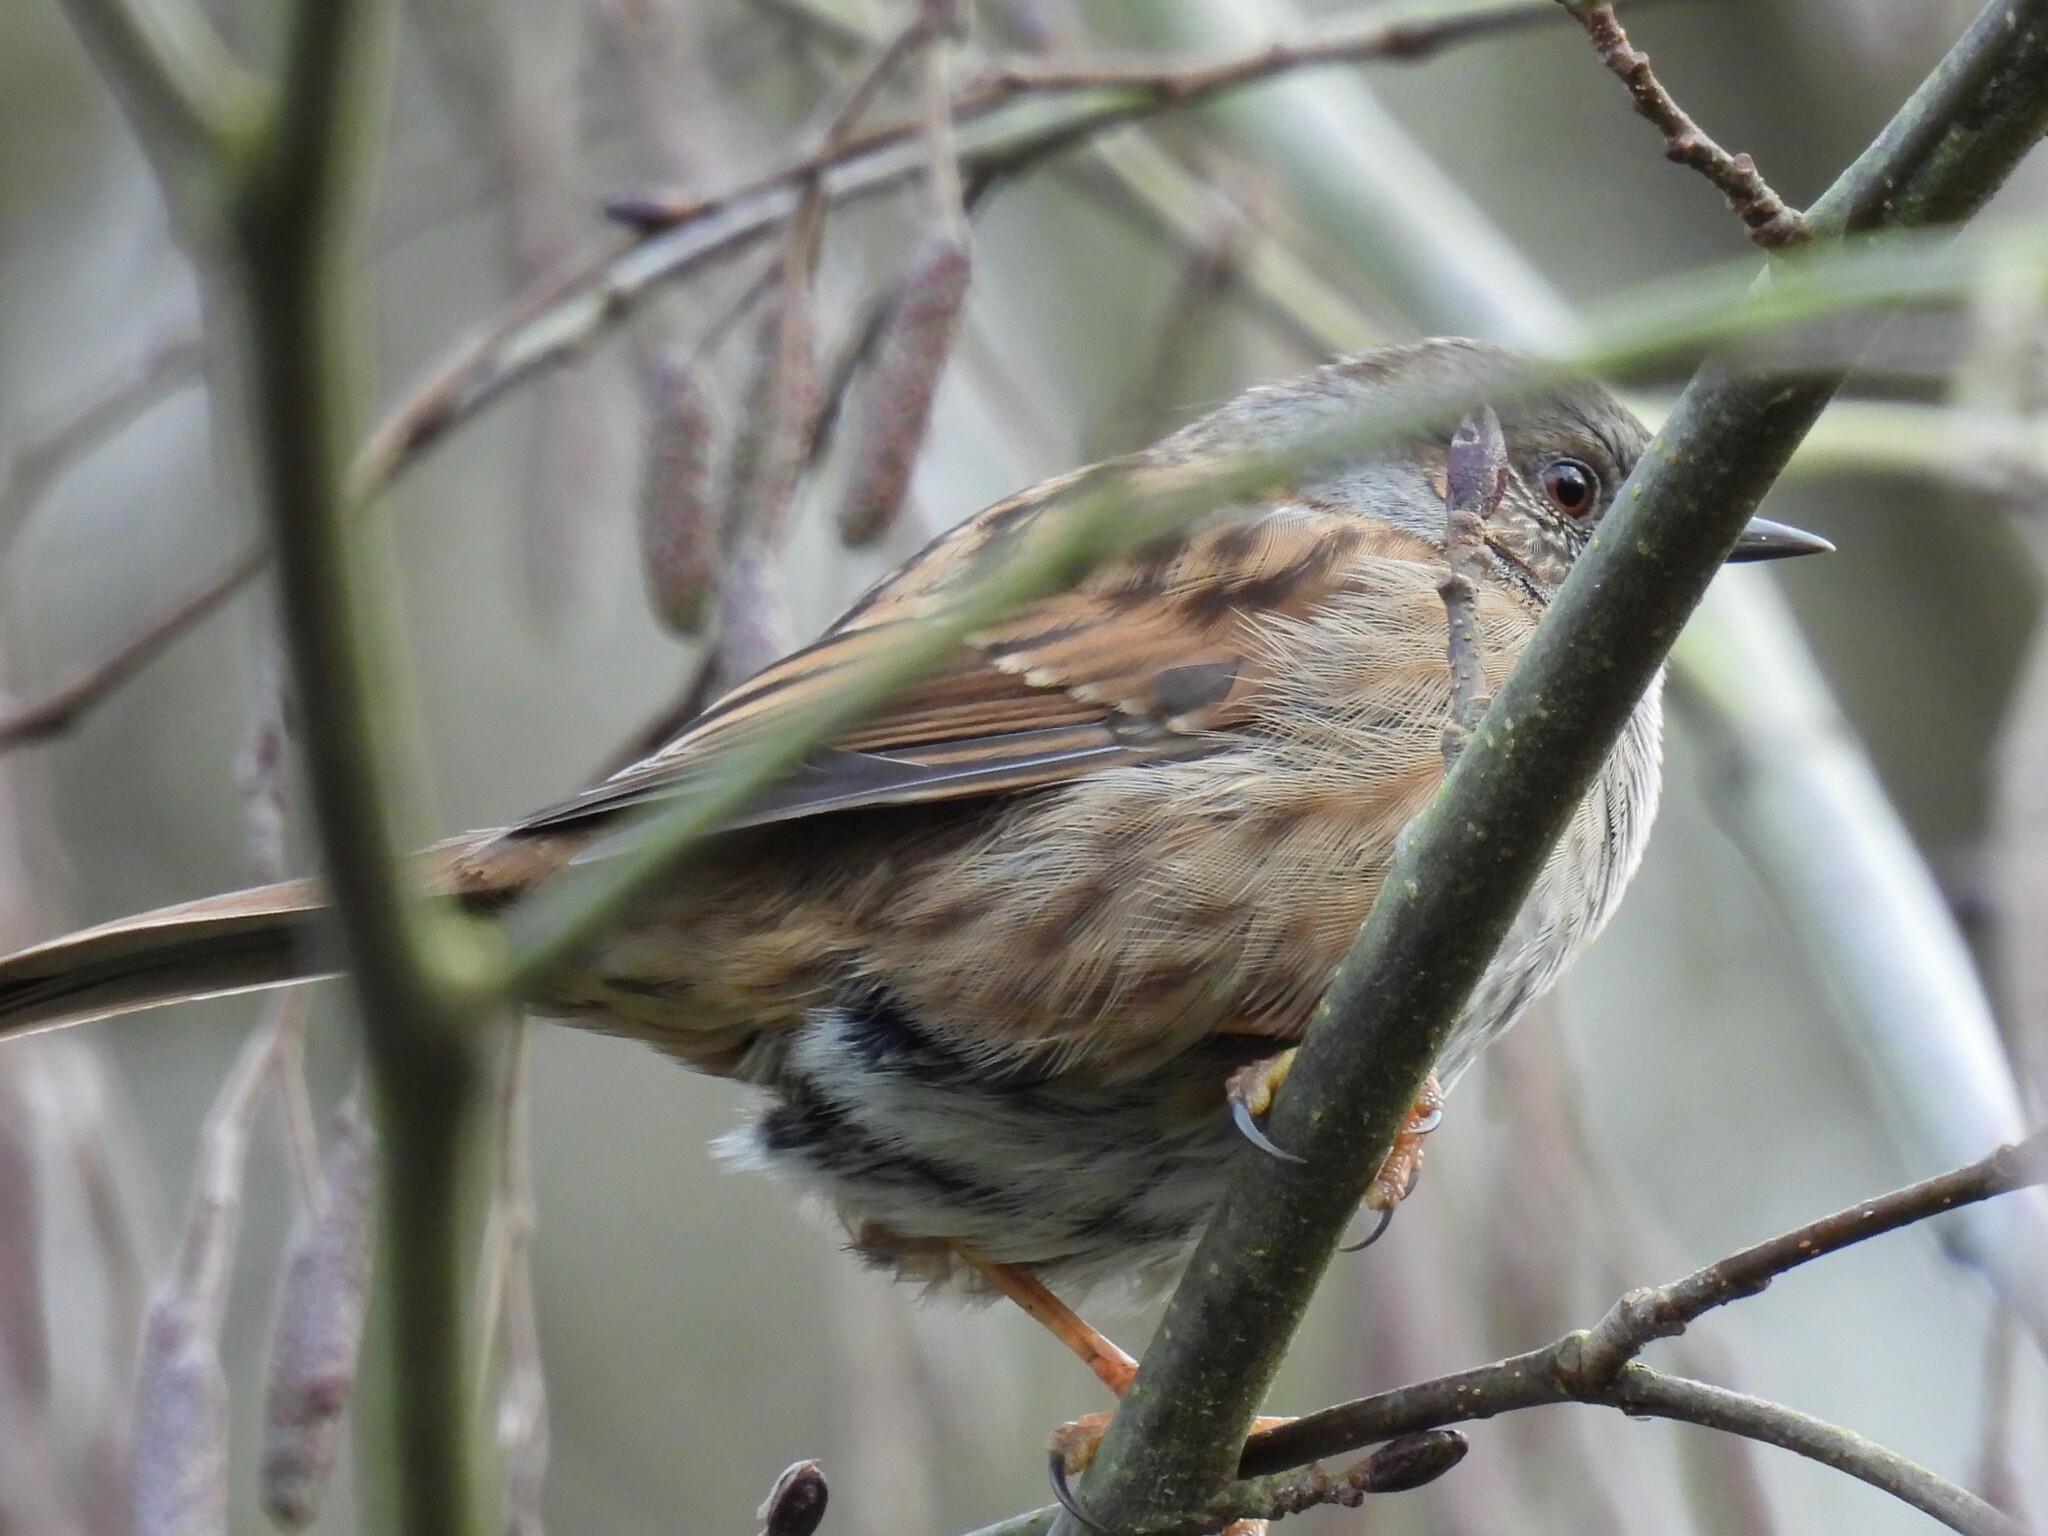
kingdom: Animalia
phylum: Chordata
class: Aves
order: Passeriformes
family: Prunellidae
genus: Prunella
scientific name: Prunella modularis
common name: Dunnock
